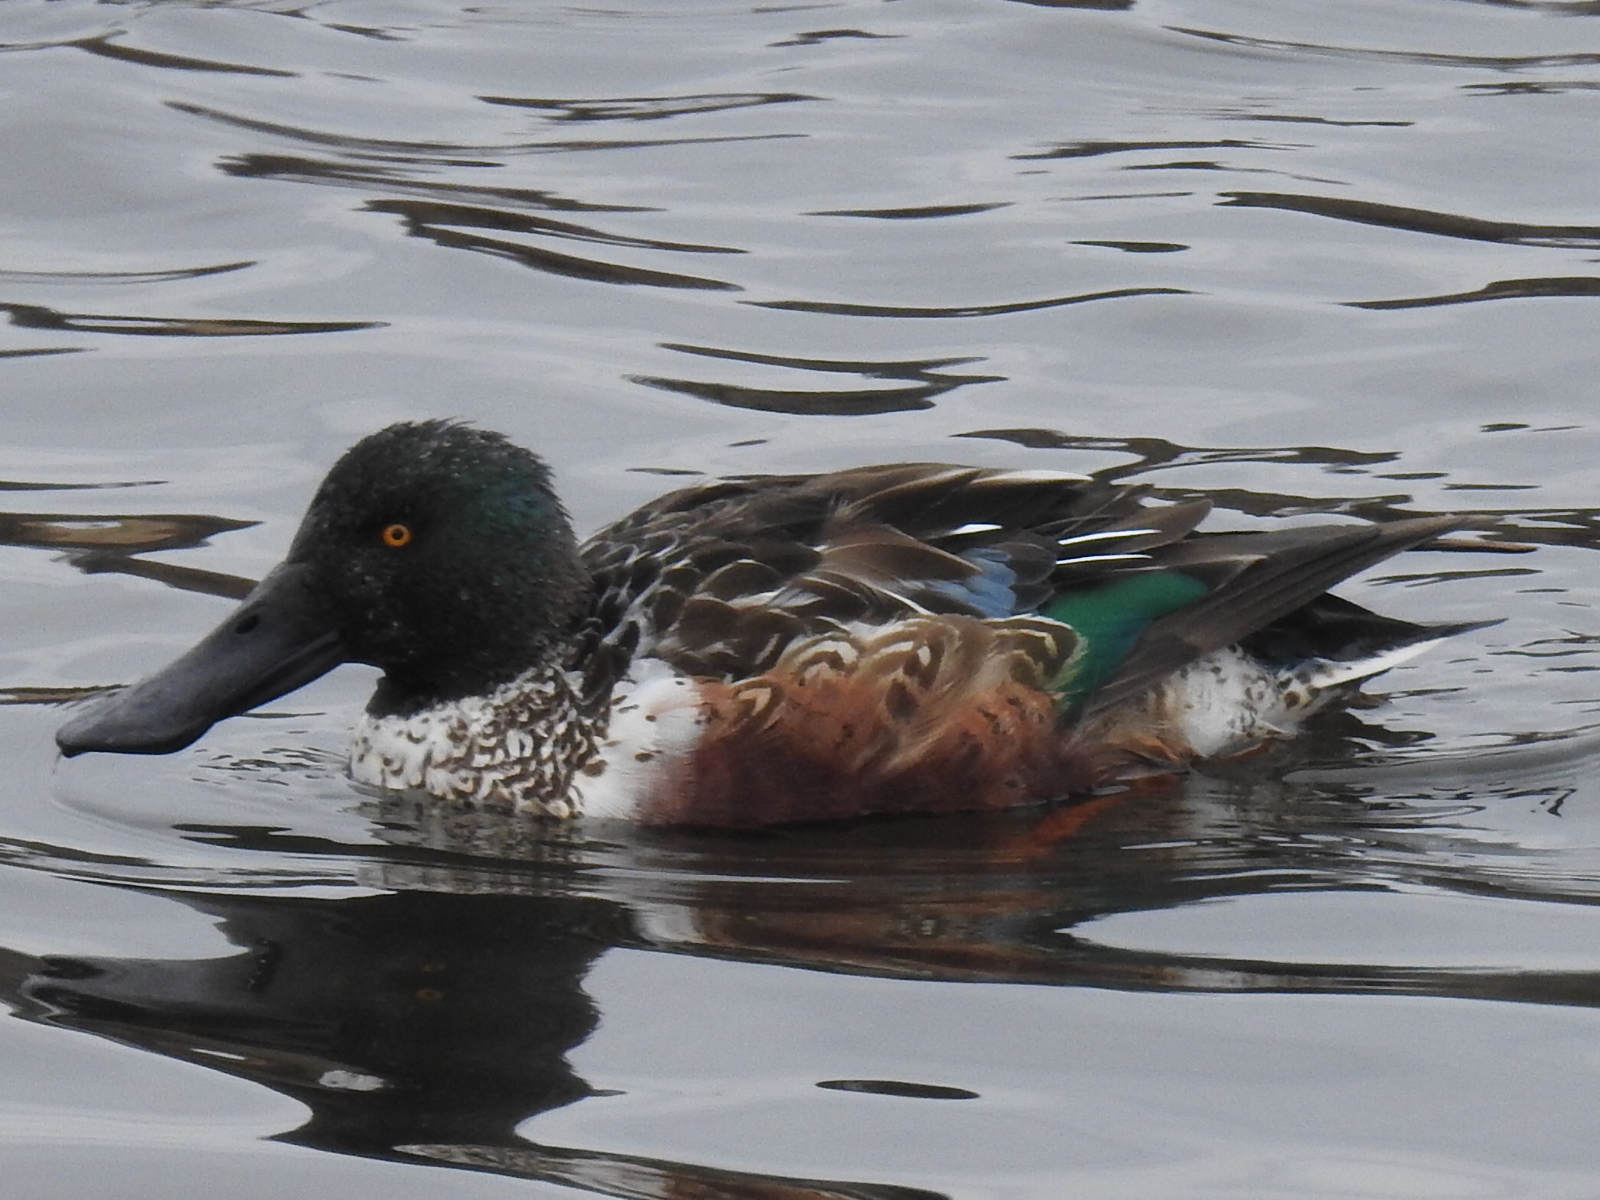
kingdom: Animalia
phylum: Chordata
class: Aves
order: Anseriformes
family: Anatidae
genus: Spatula
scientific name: Spatula clypeata
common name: Northern shoveler
